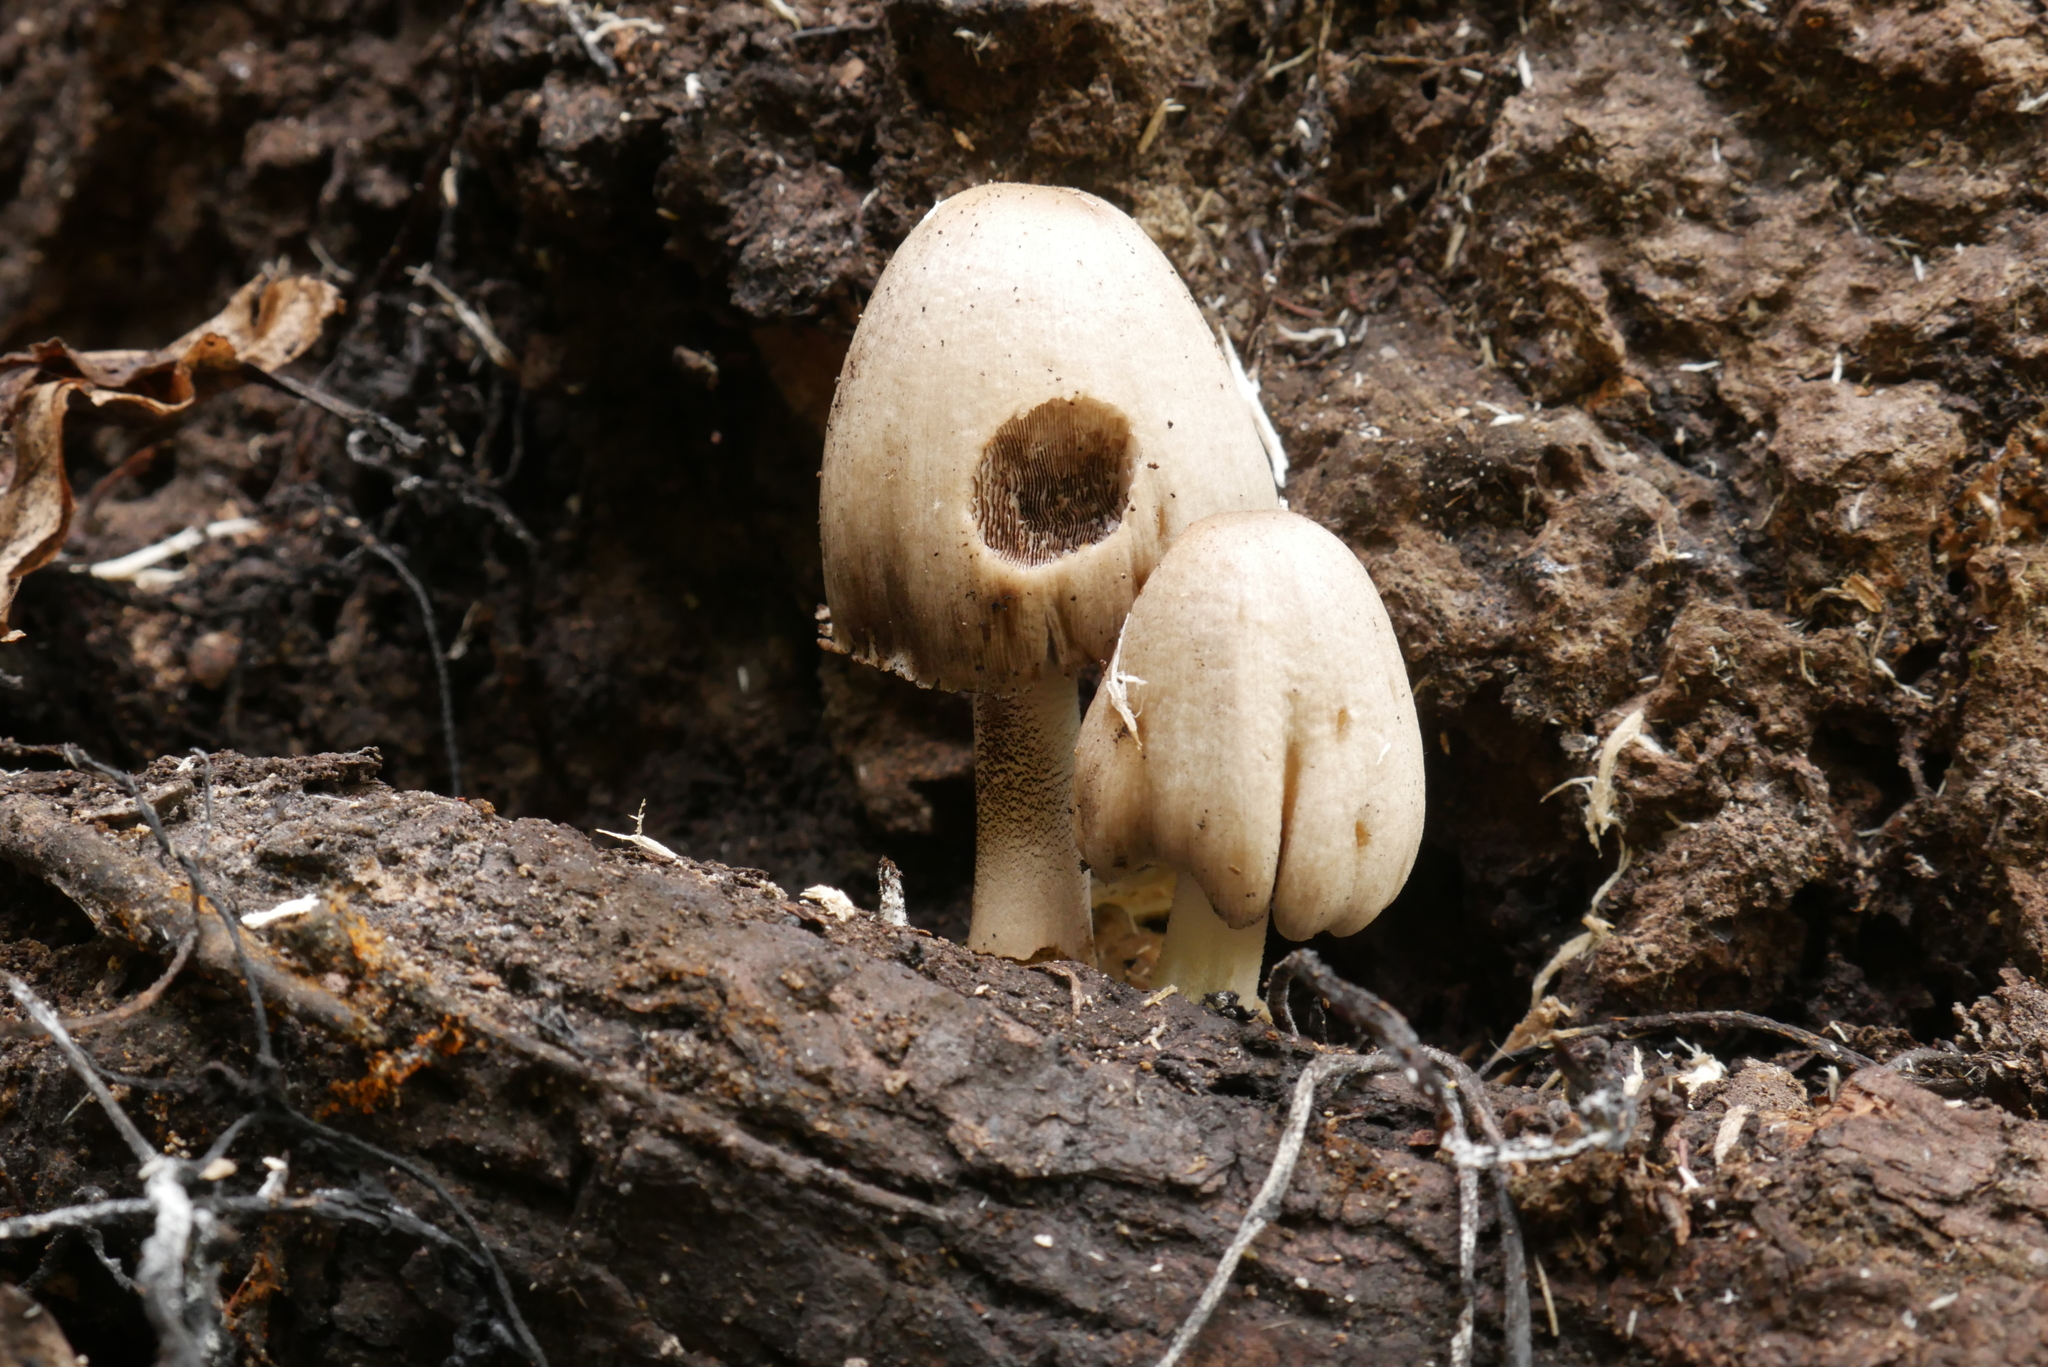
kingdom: Fungi
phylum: Basidiomycota
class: Agaricomycetes
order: Agaricales
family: Psathyrellaceae
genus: Coprinopsis
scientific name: Coprinopsis atramentaria
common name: Common ink-cap
